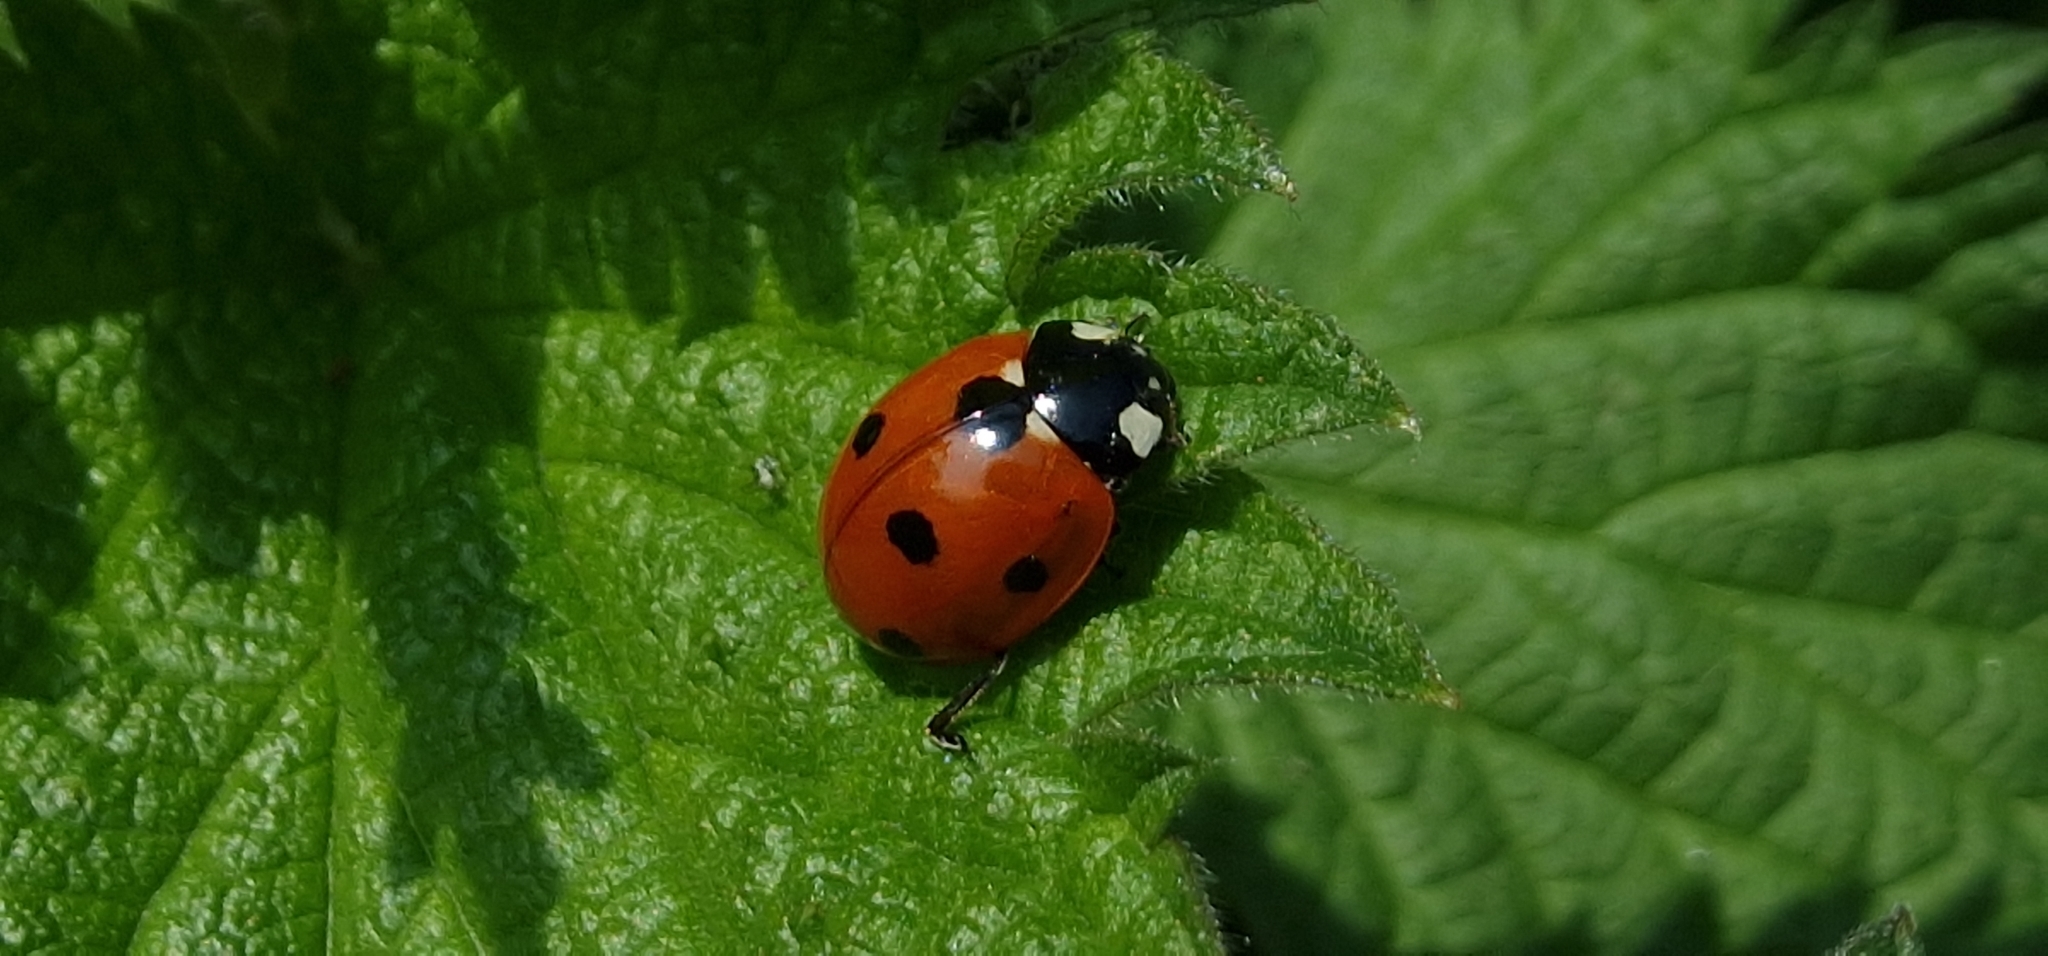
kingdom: Animalia
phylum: Arthropoda
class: Insecta
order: Coleoptera
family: Coccinellidae
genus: Coccinella
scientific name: Coccinella septempunctata
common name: Sevenspotted lady beetle
